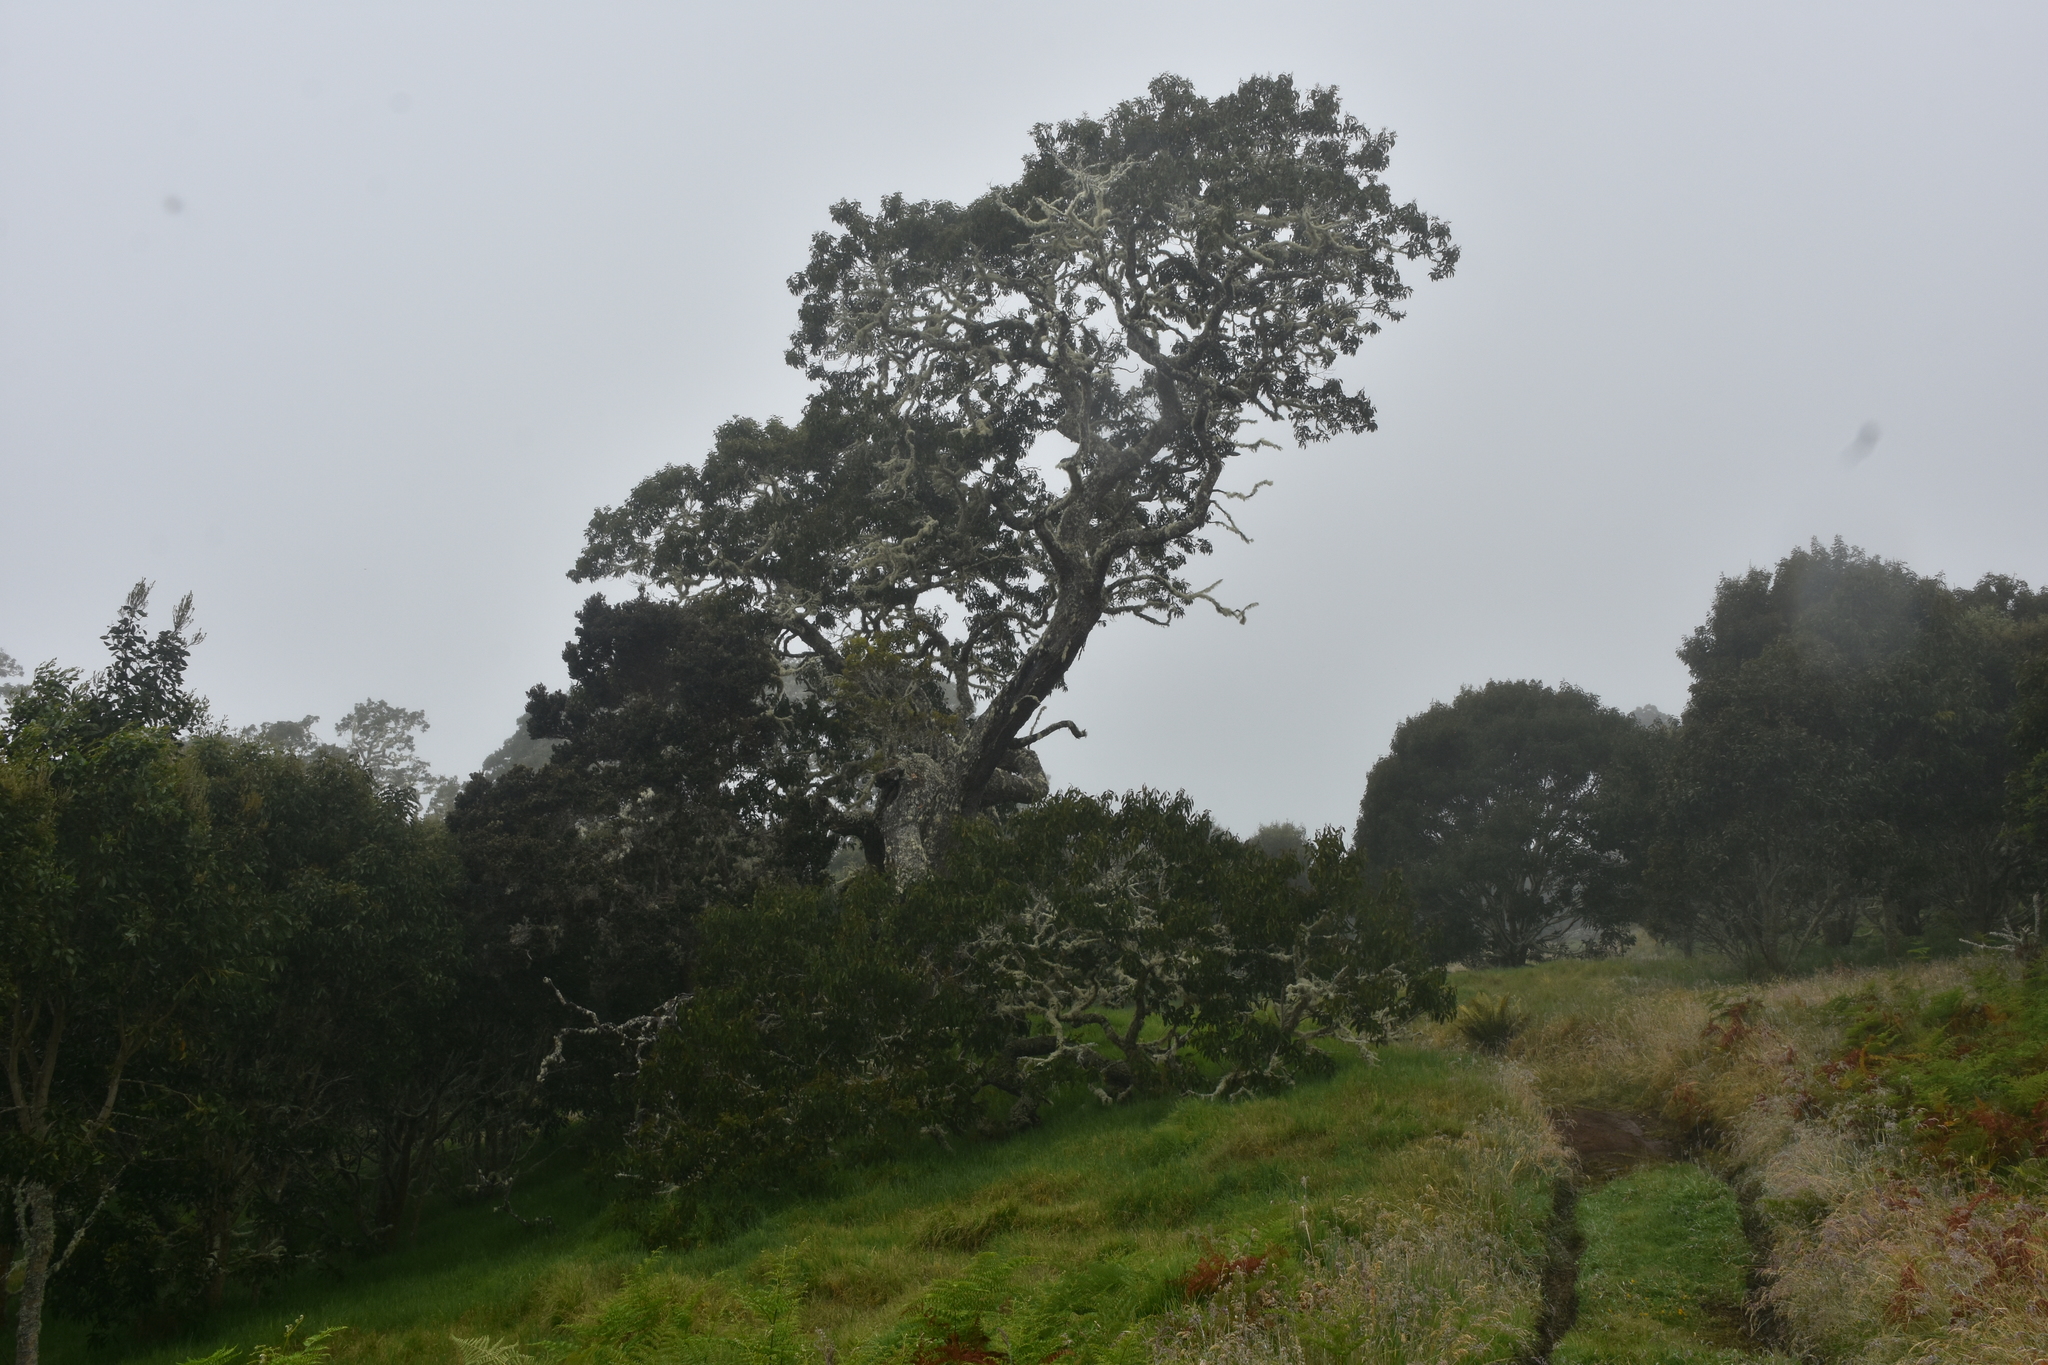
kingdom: Plantae
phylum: Tracheophyta
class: Magnoliopsida
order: Fabales
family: Fabaceae
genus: Acacia
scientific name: Acacia koa
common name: Gray koa
